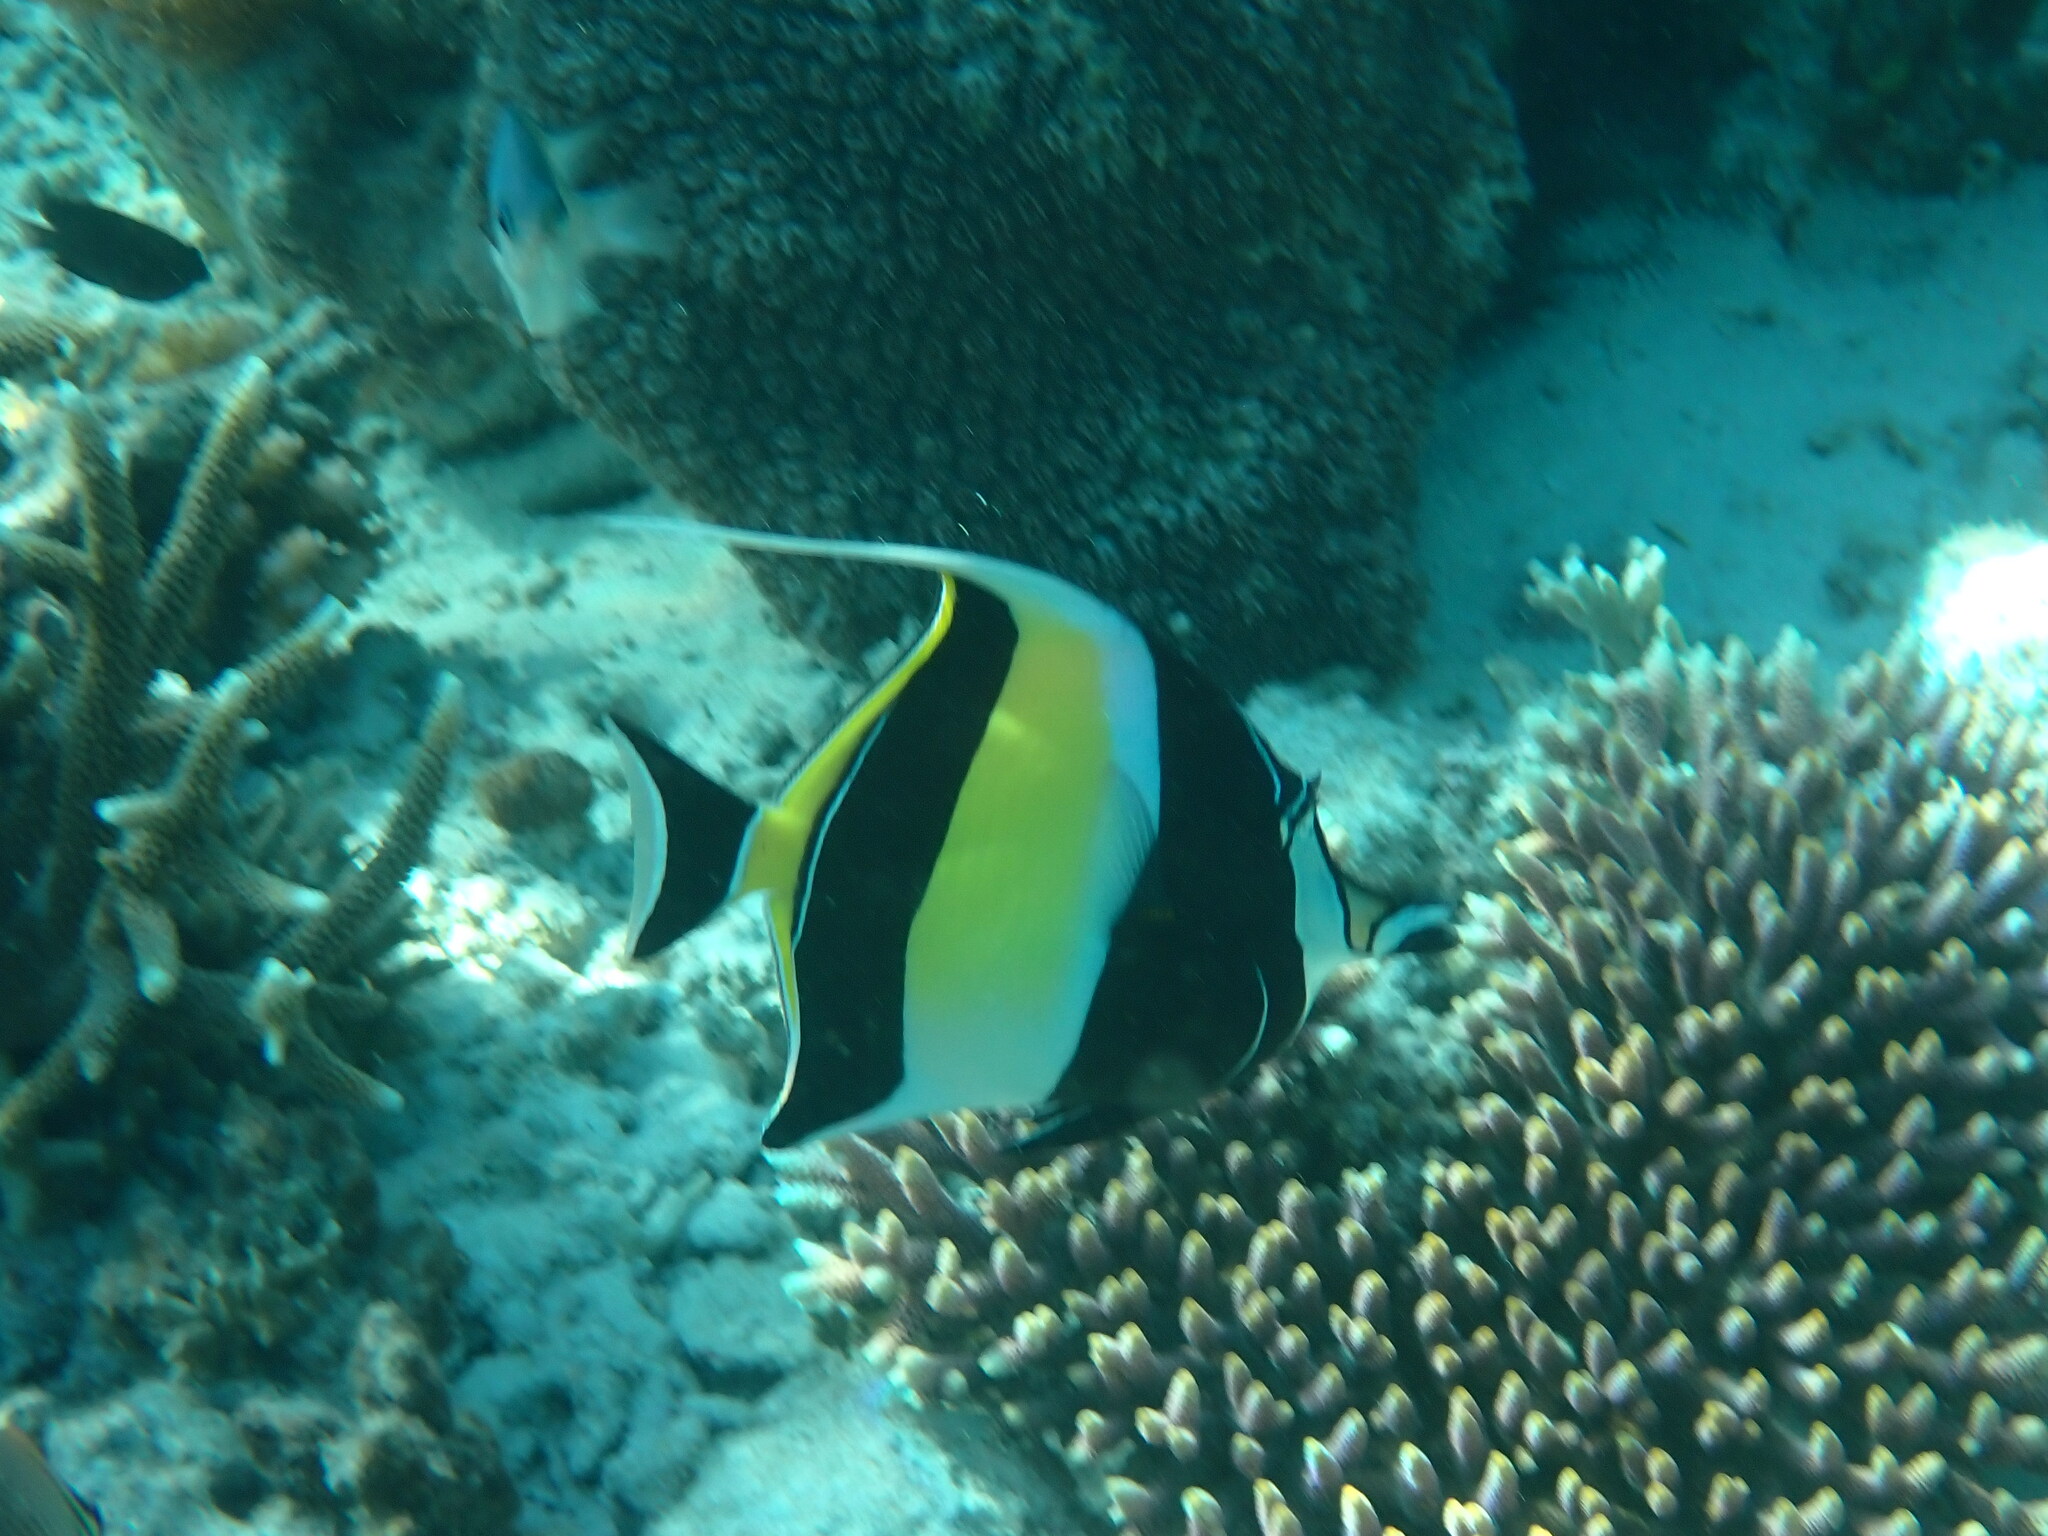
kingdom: Animalia
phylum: Chordata
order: Perciformes
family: Zanclidae
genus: Zanclus
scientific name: Zanclus cornutus
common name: Moorish idol
